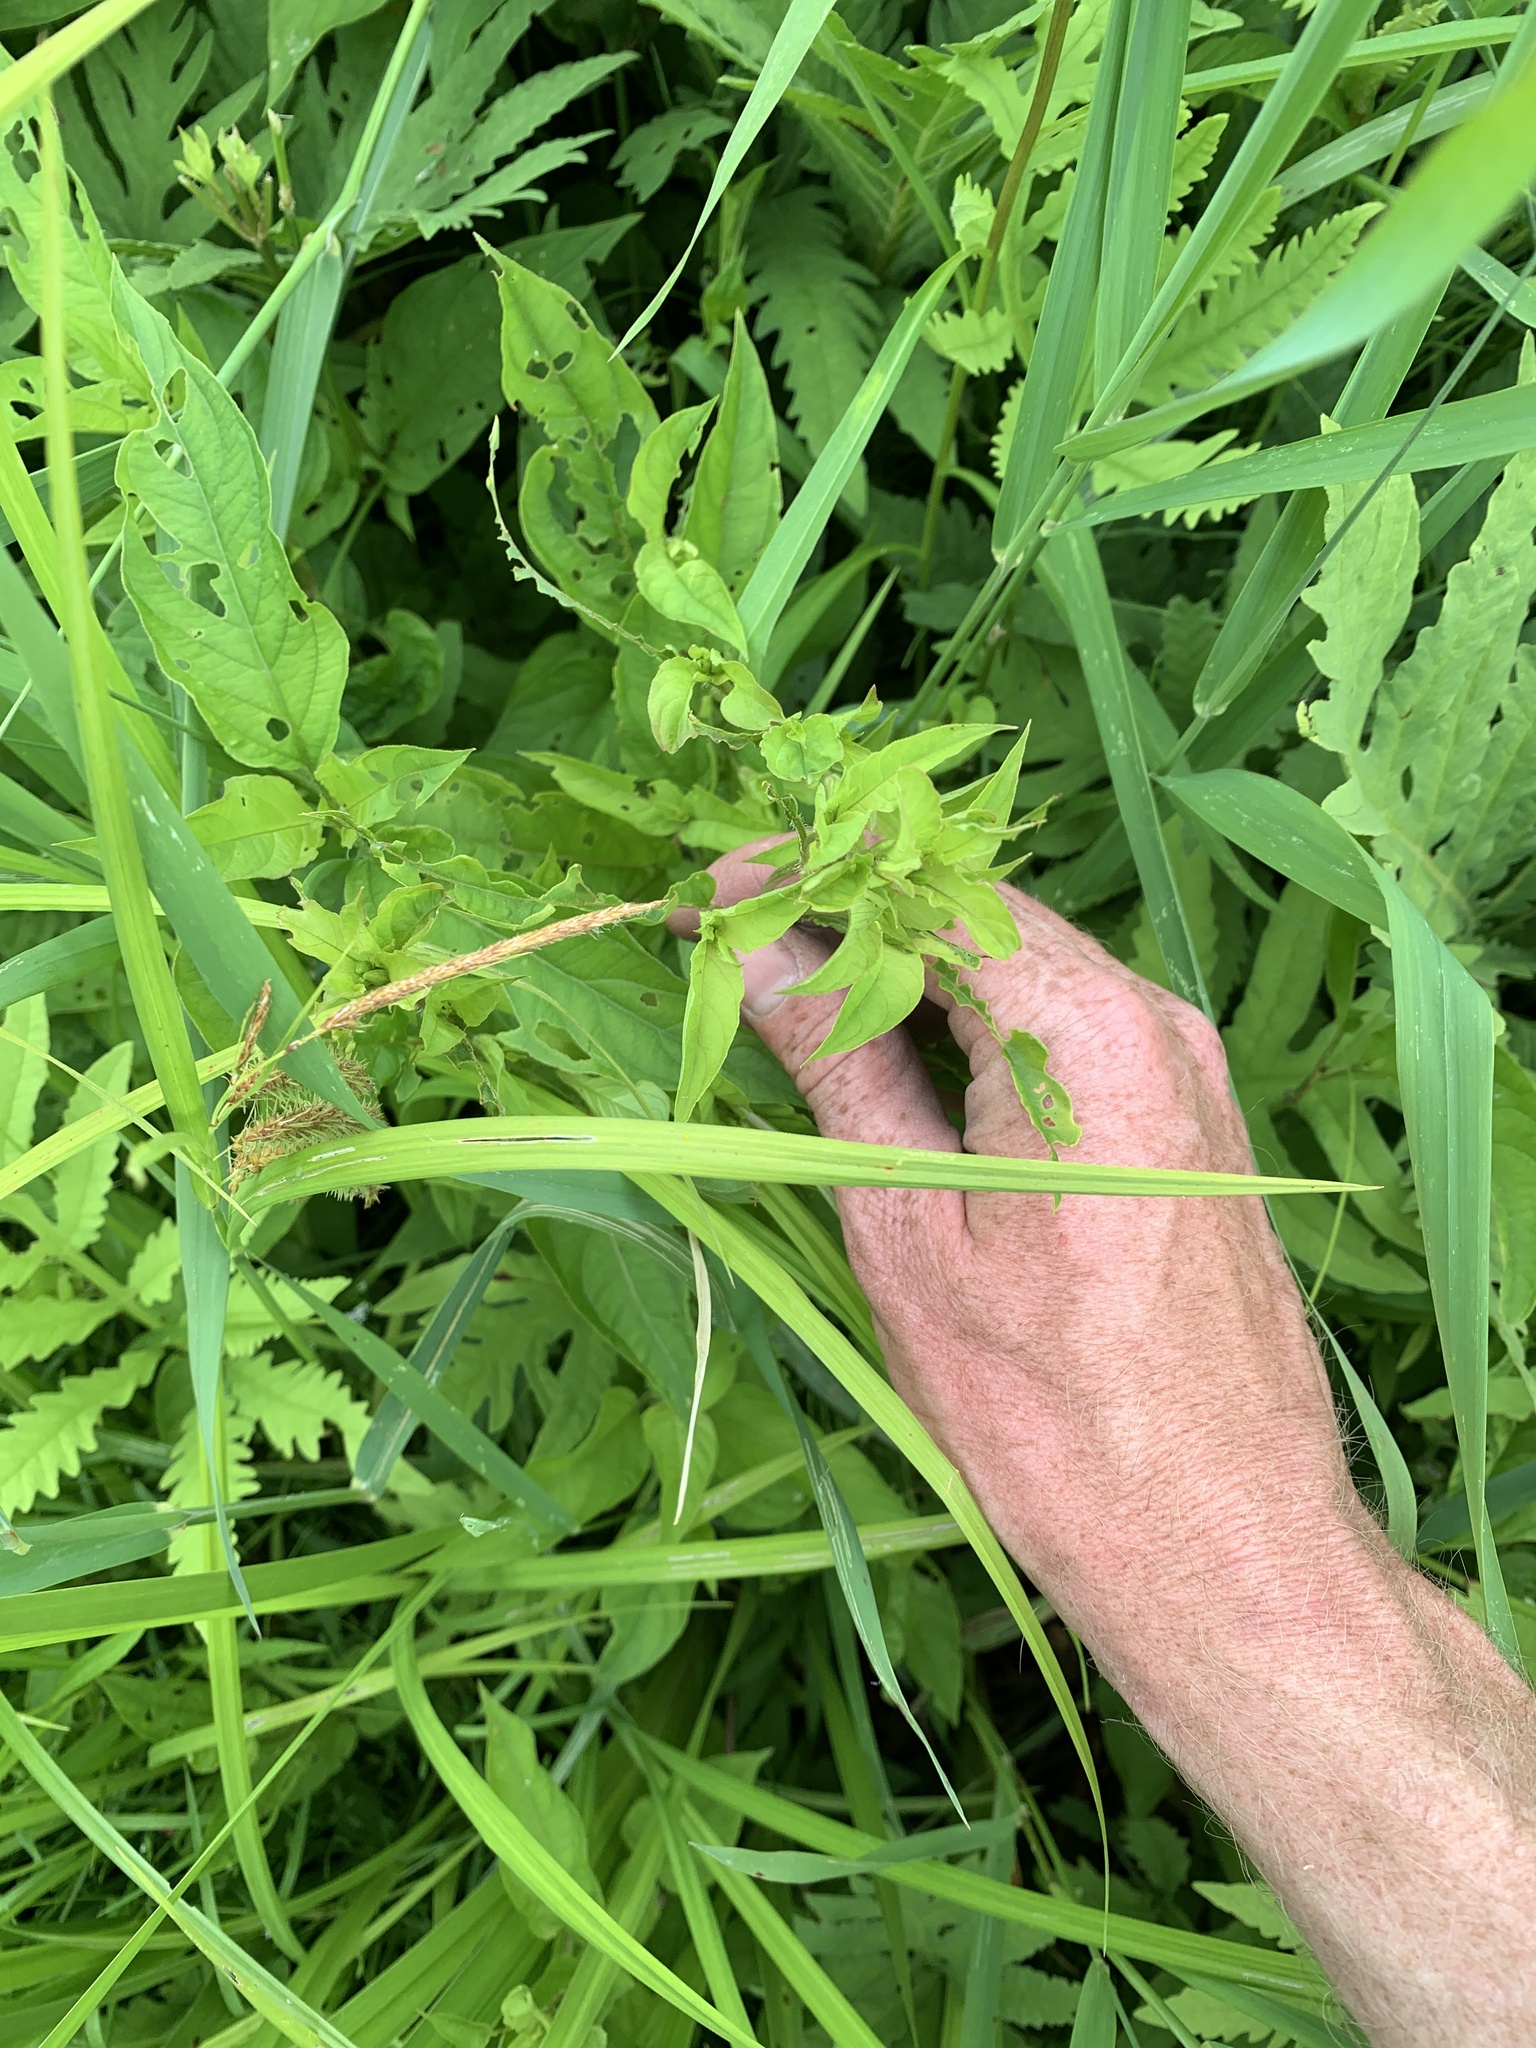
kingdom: Plantae
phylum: Tracheophyta
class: Magnoliopsida
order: Ericales
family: Primulaceae
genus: Lysimachia
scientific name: Lysimachia ciliata
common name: Fringed loosestrife
